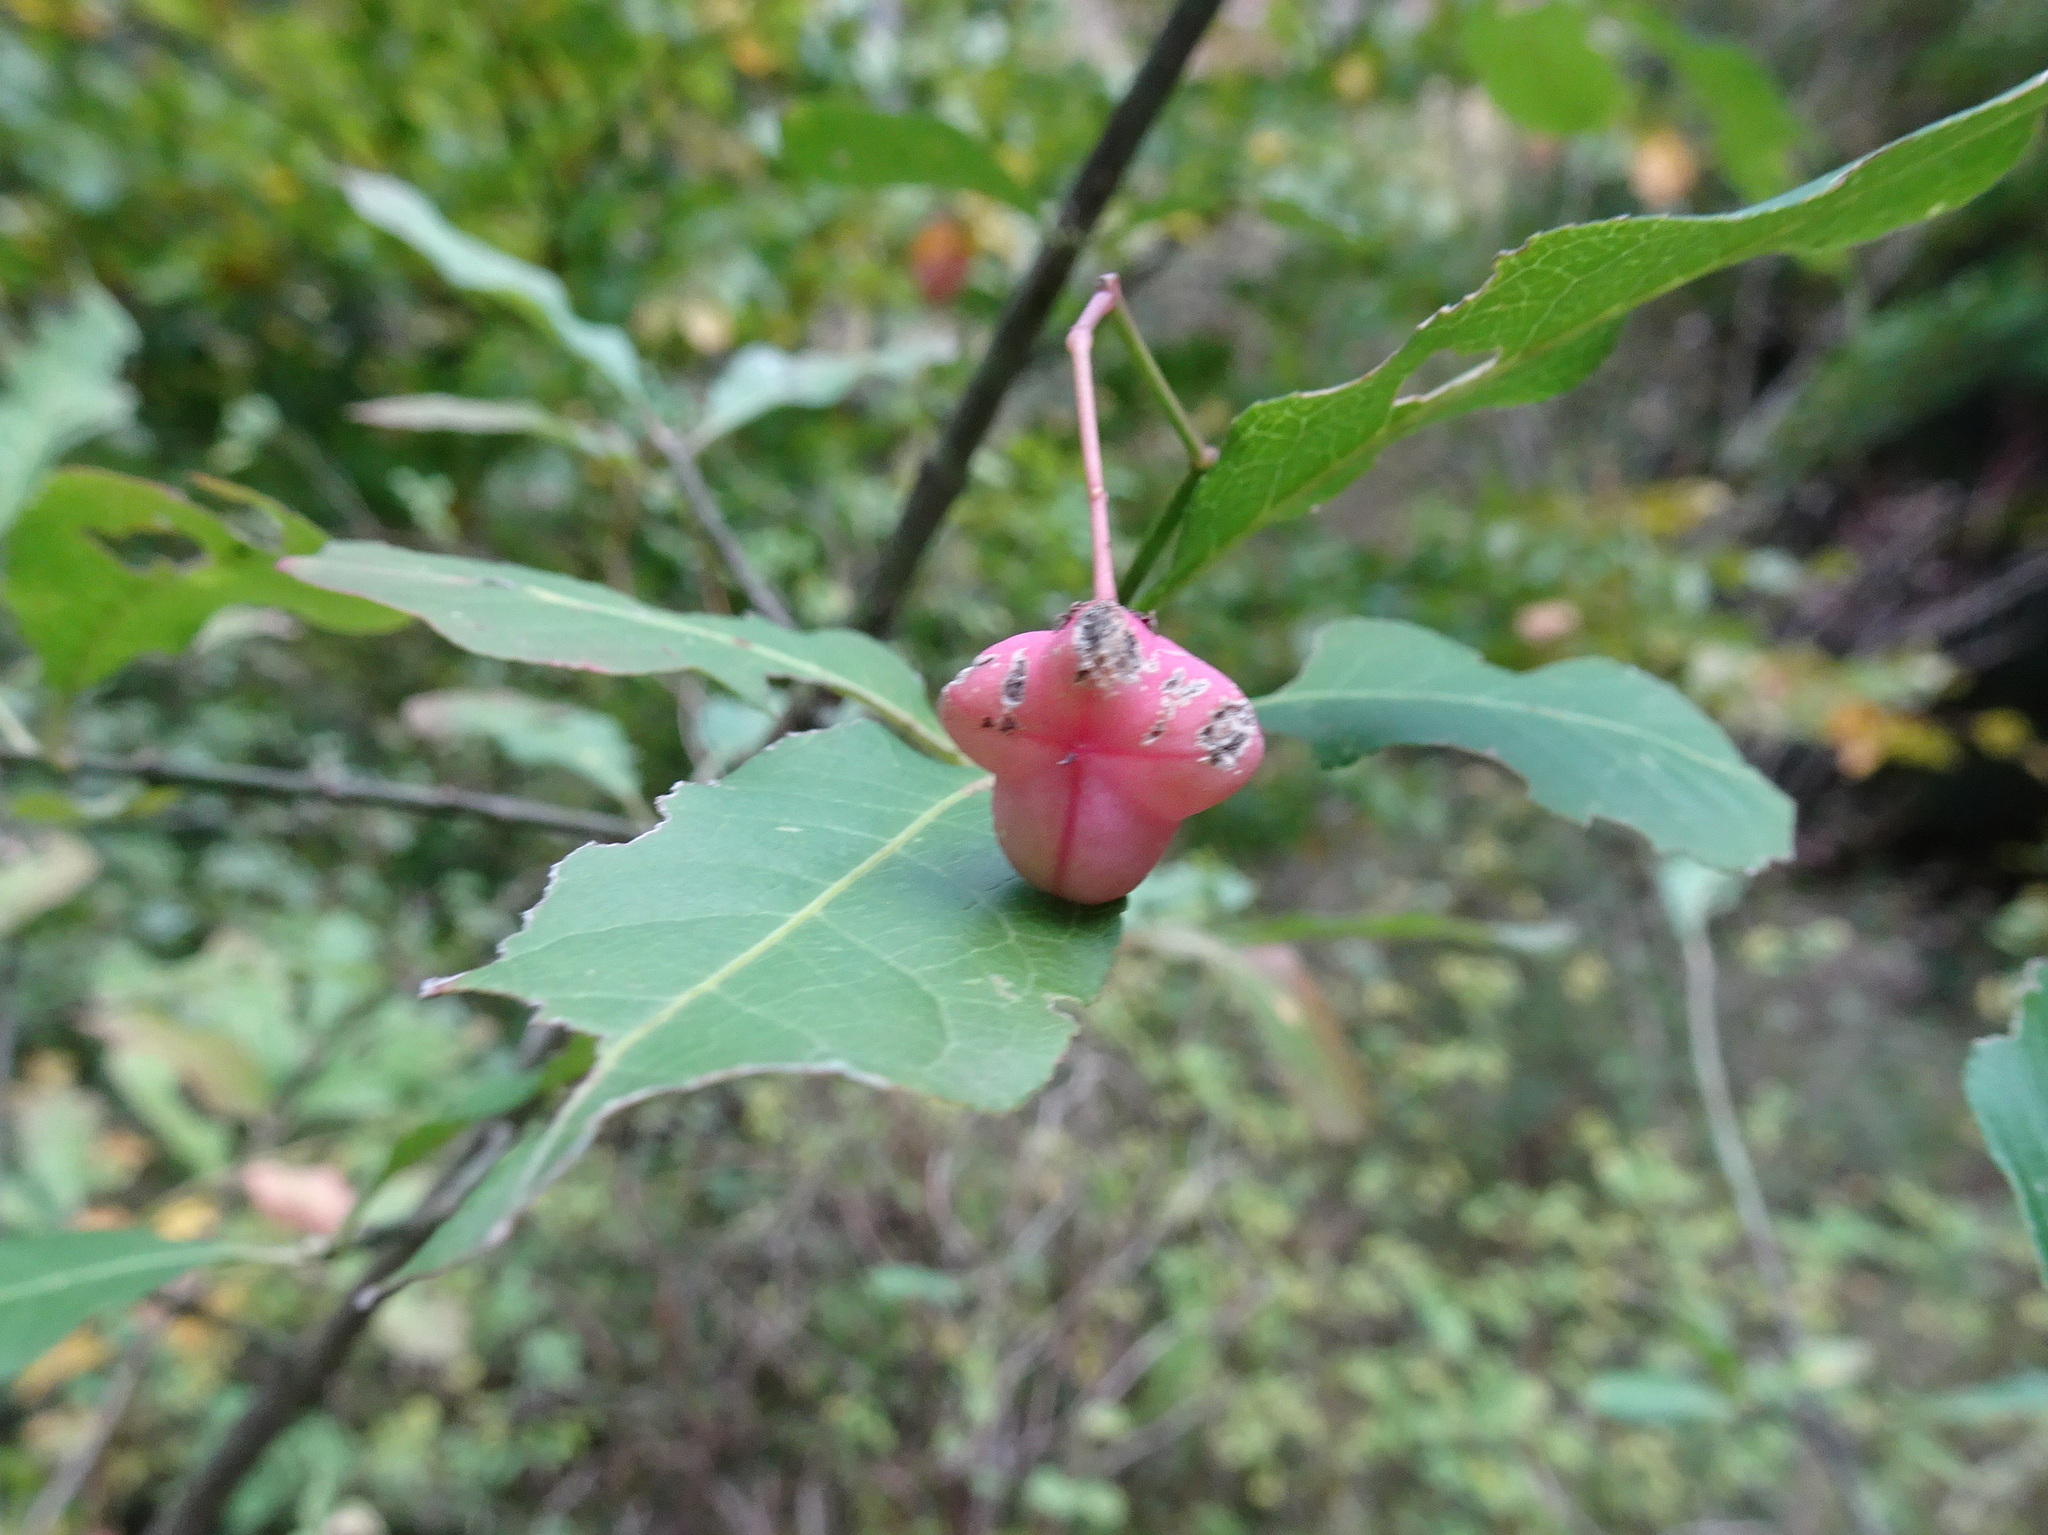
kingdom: Plantae
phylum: Tracheophyta
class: Magnoliopsida
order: Celastrales
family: Celastraceae
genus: Euonymus
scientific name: Euonymus europaeus
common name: Spindle
